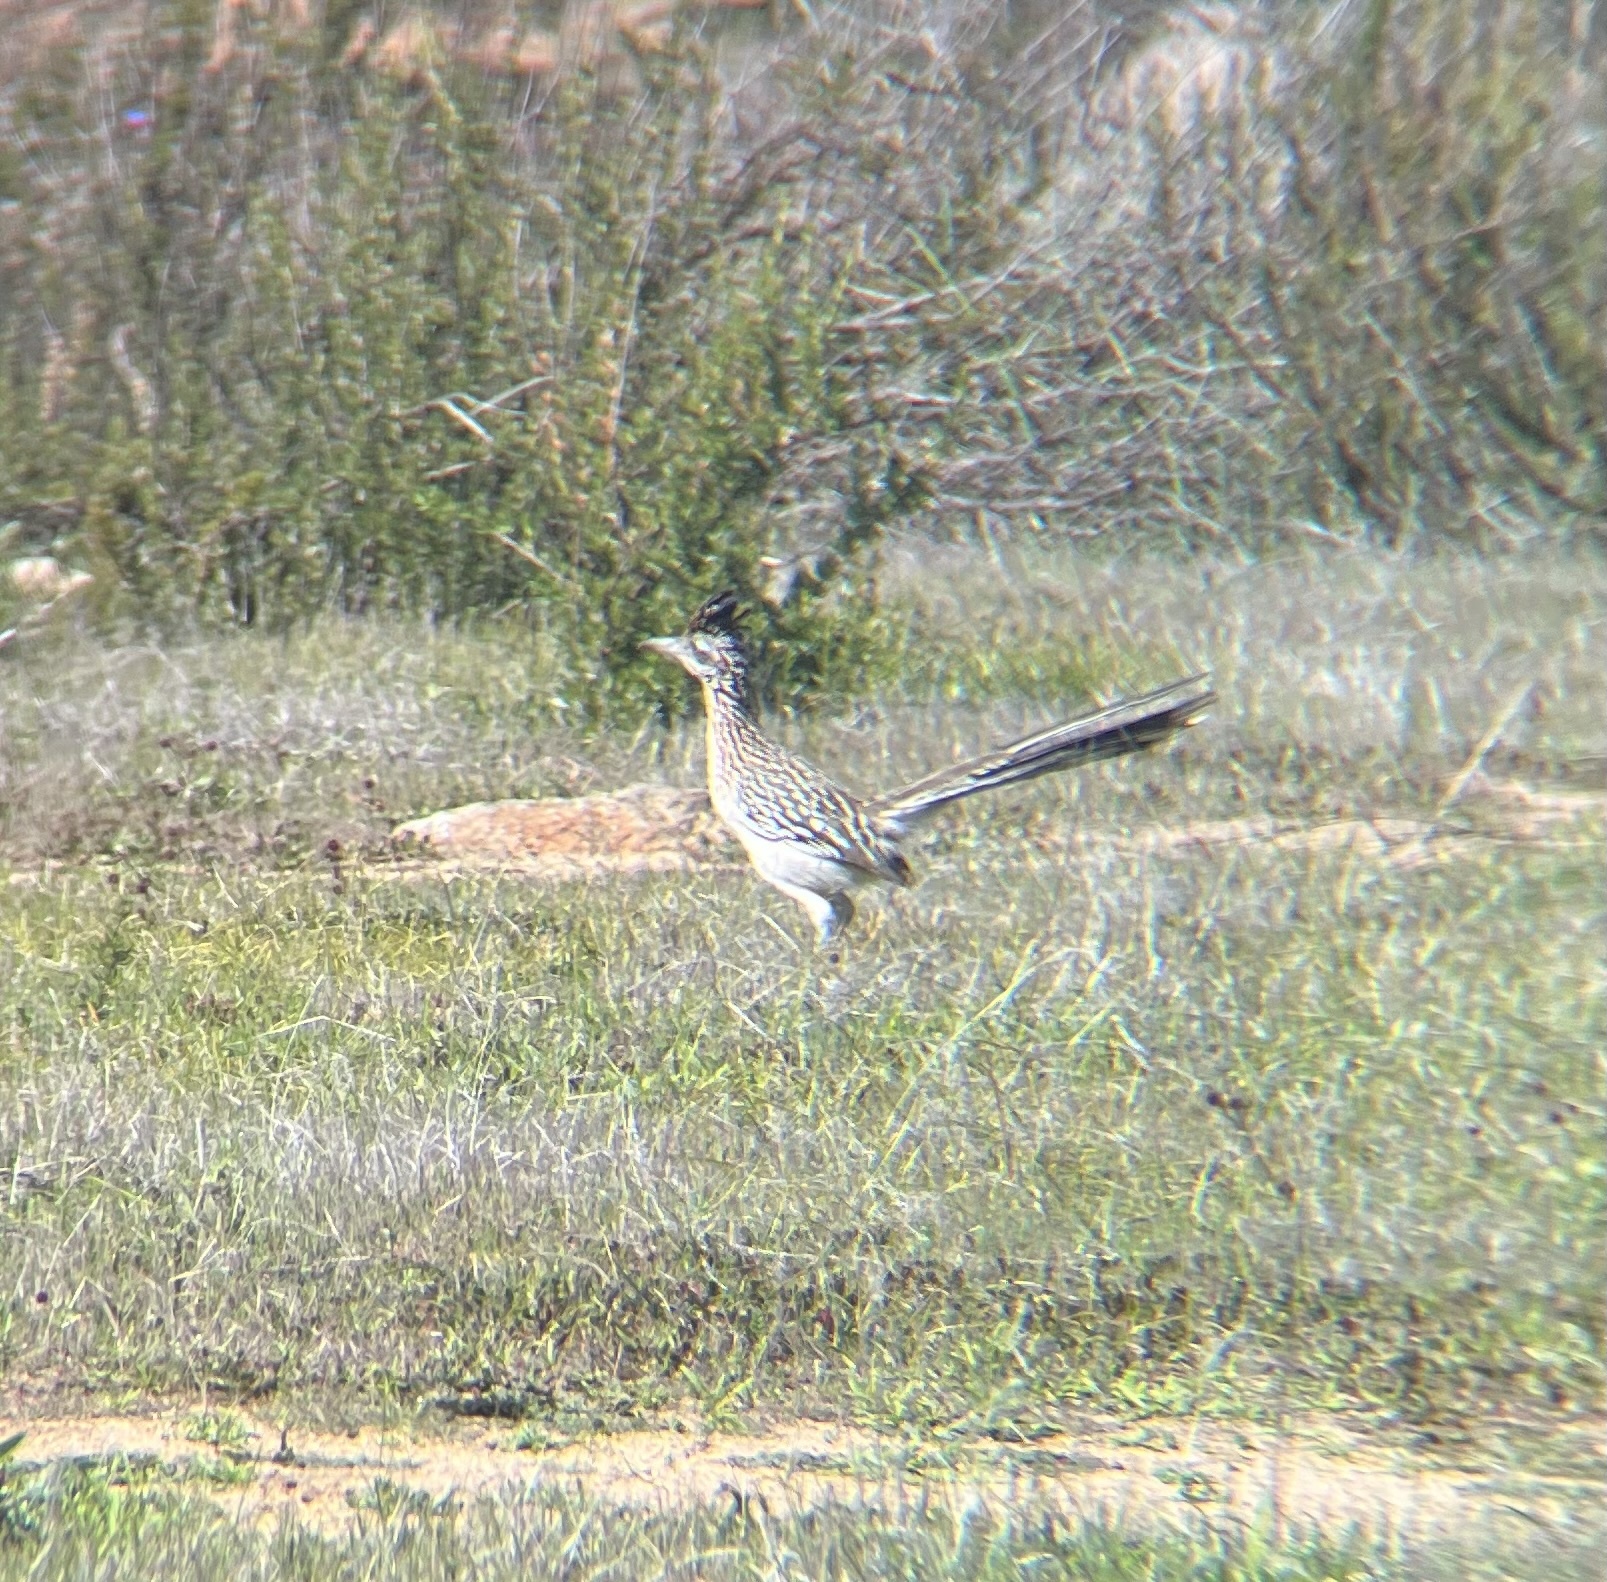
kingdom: Animalia
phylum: Chordata
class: Aves
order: Cuculiformes
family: Cuculidae
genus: Geococcyx
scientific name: Geococcyx californianus
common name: Greater roadrunner
